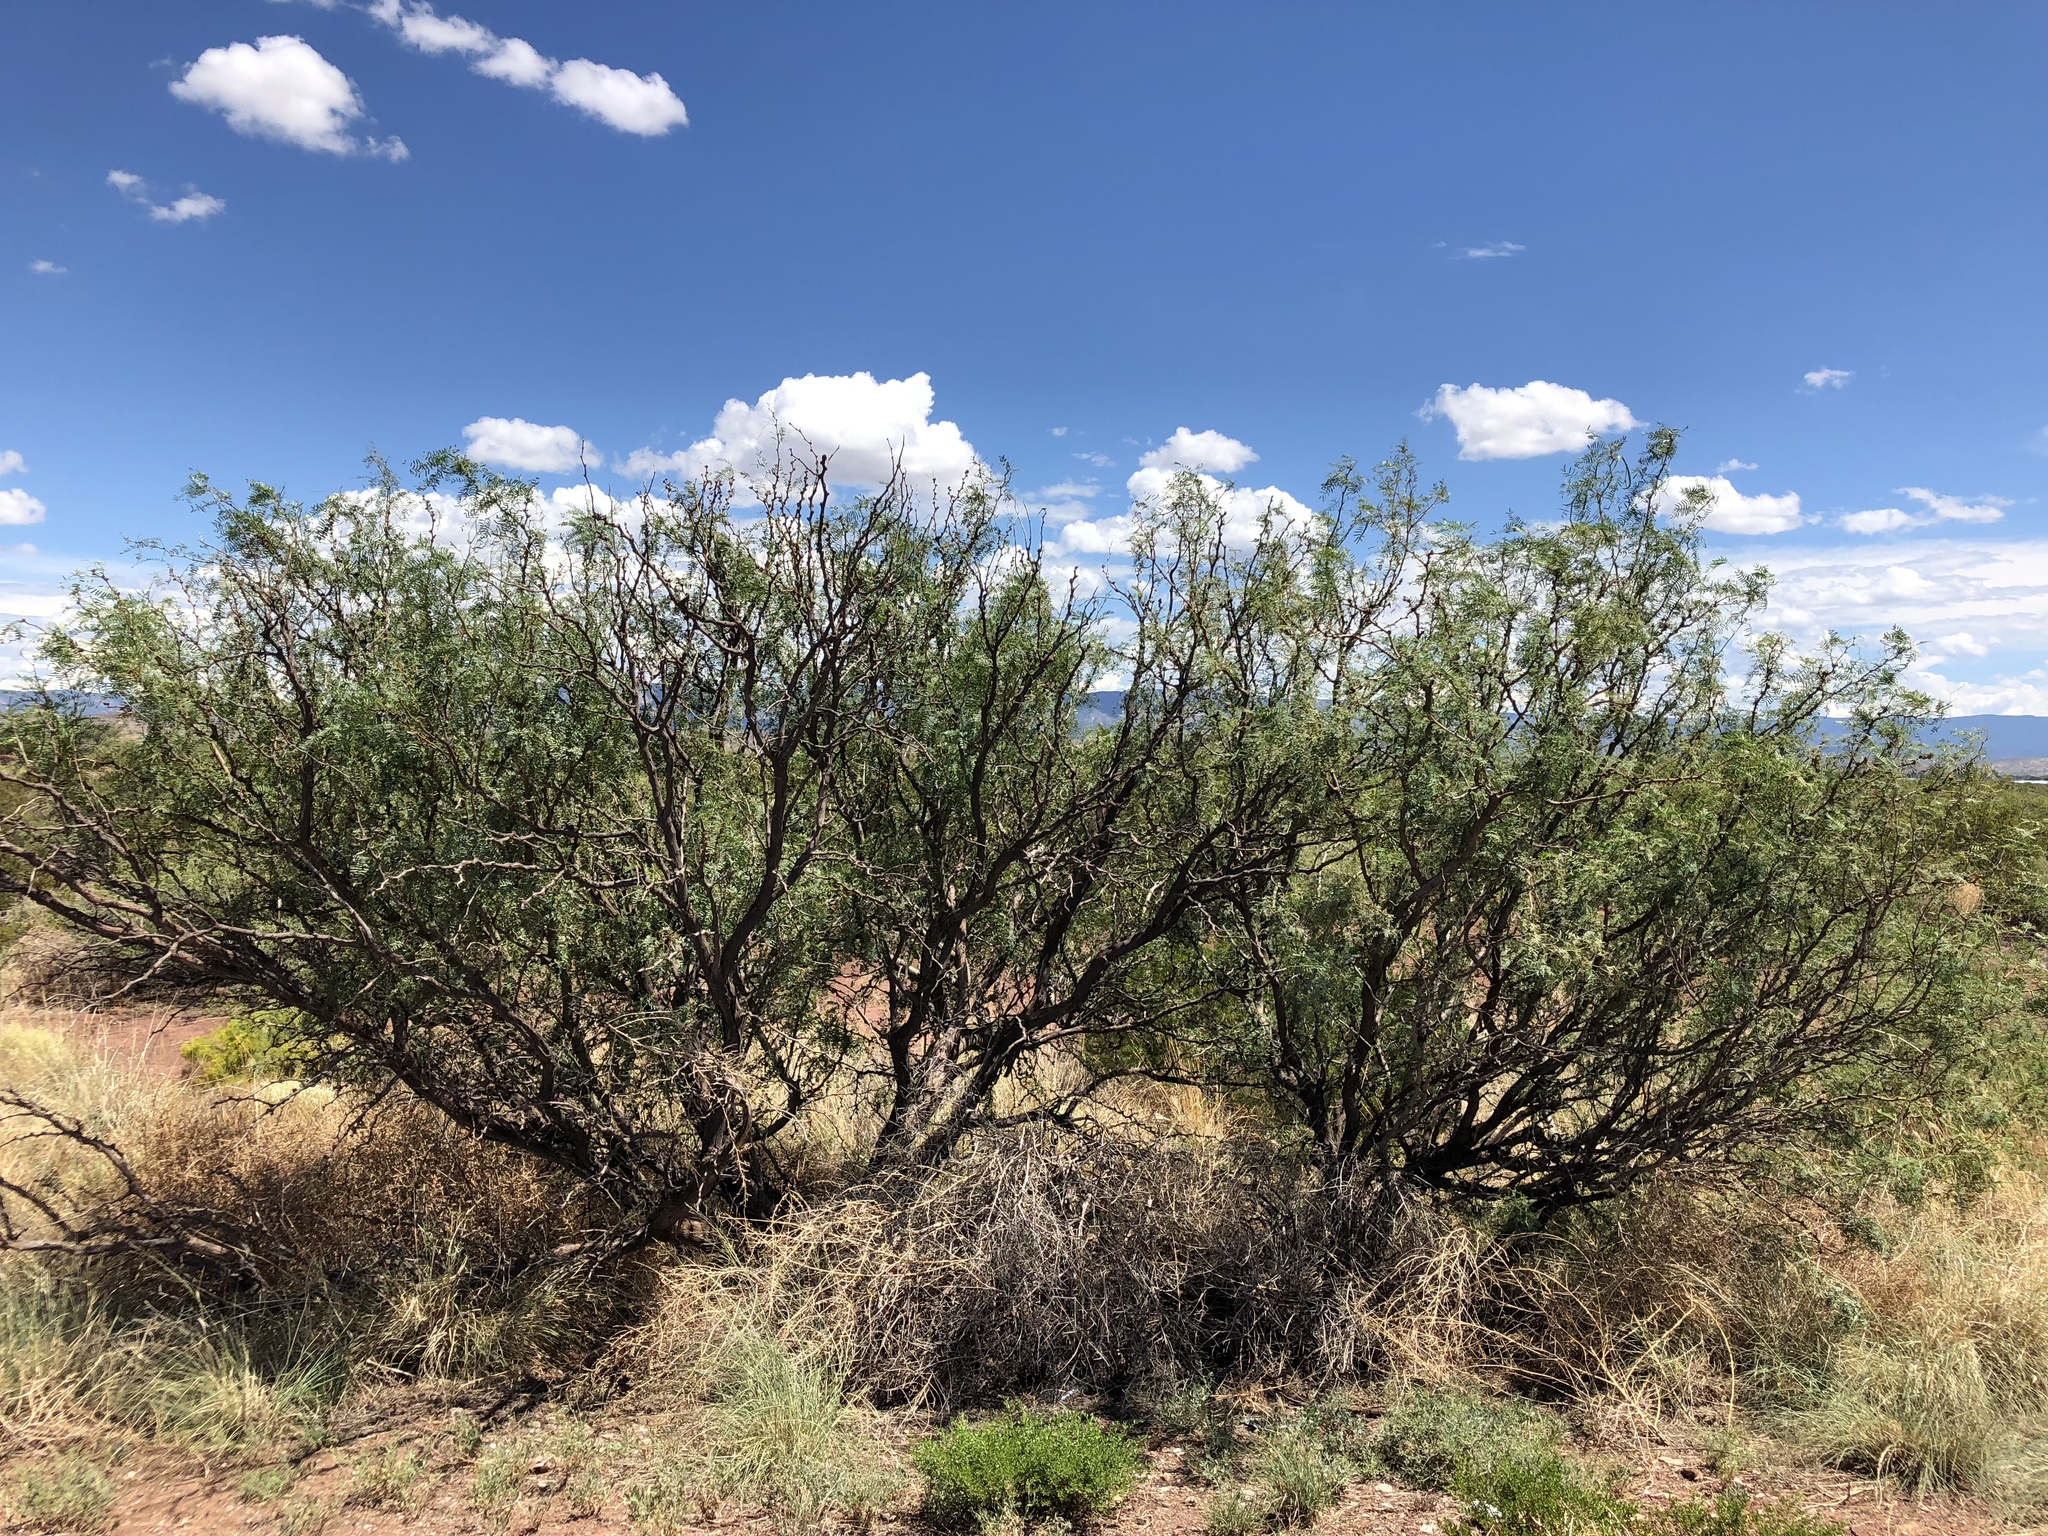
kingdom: Plantae
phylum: Tracheophyta
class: Magnoliopsida
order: Fabales
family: Fabaceae
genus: Prosopis
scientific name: Prosopis glandulosa
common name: Honey mesquite
